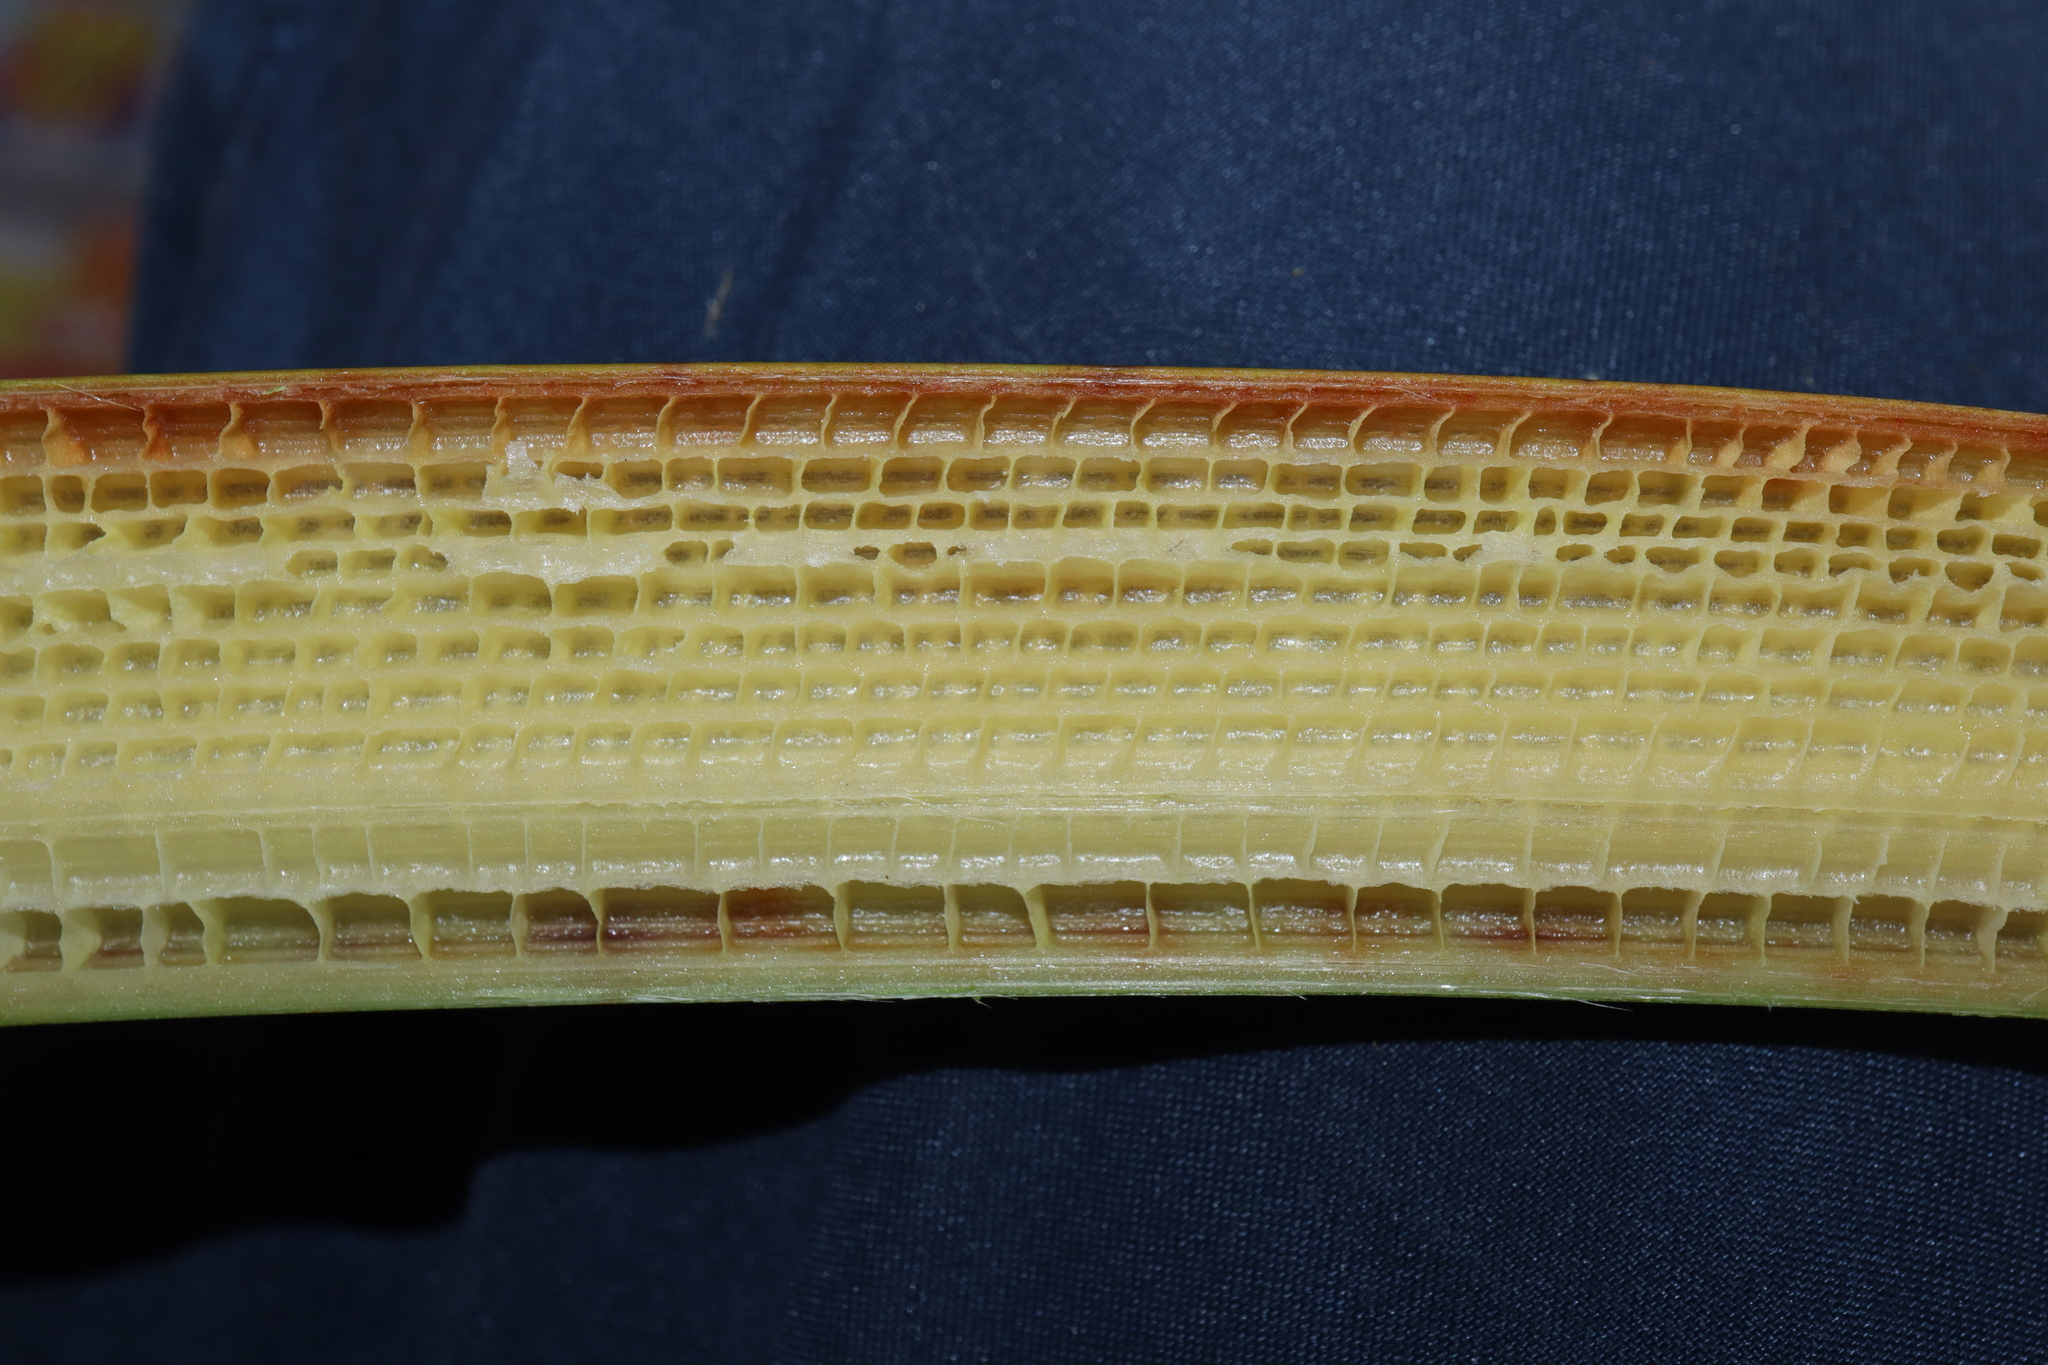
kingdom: Plantae
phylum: Tracheophyta
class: Liliopsida
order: Zingiberales
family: Strelitziaceae
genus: Strelitzia
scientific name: Strelitzia nicolai
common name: Bird-of-paradise tree
